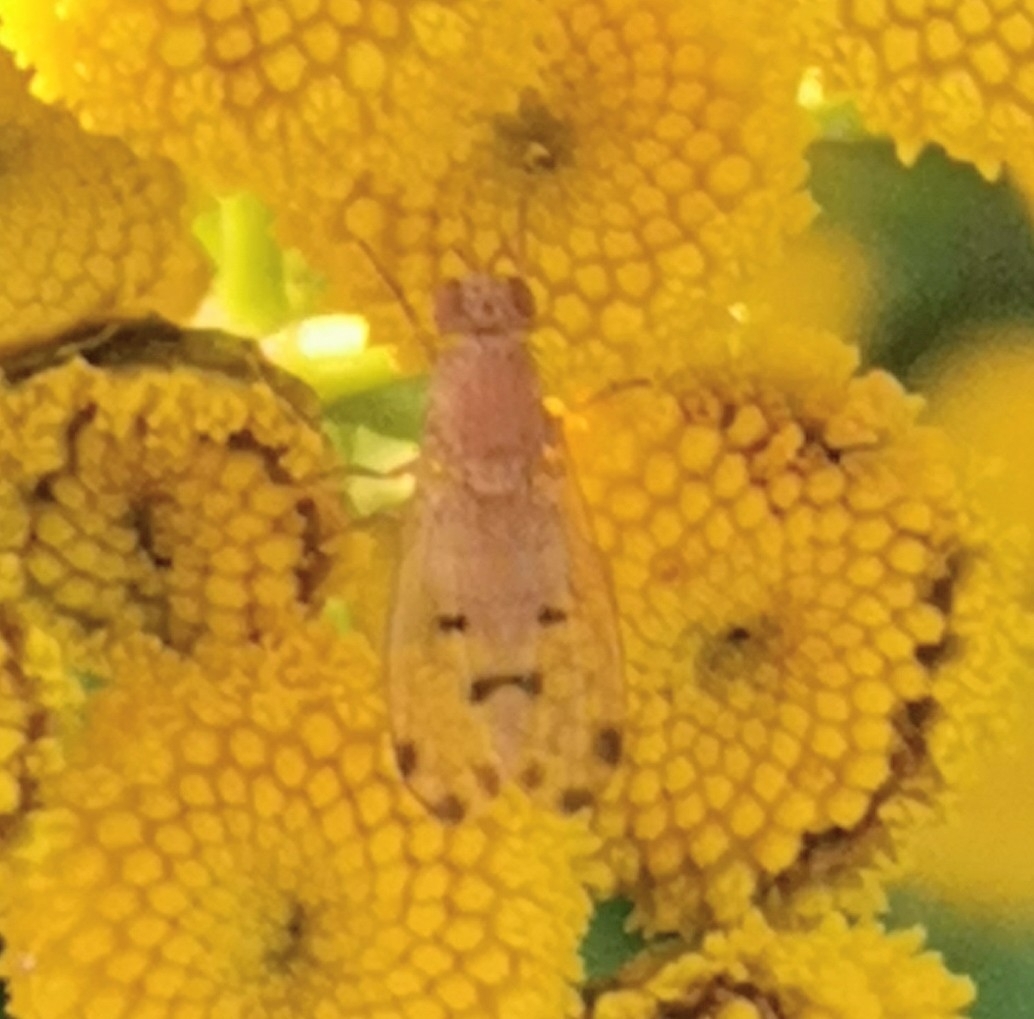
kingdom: Animalia
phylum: Arthropoda
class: Insecta
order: Diptera
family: Lauxaniidae
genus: Meiosimyza
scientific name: Meiosimyza decempunctata
